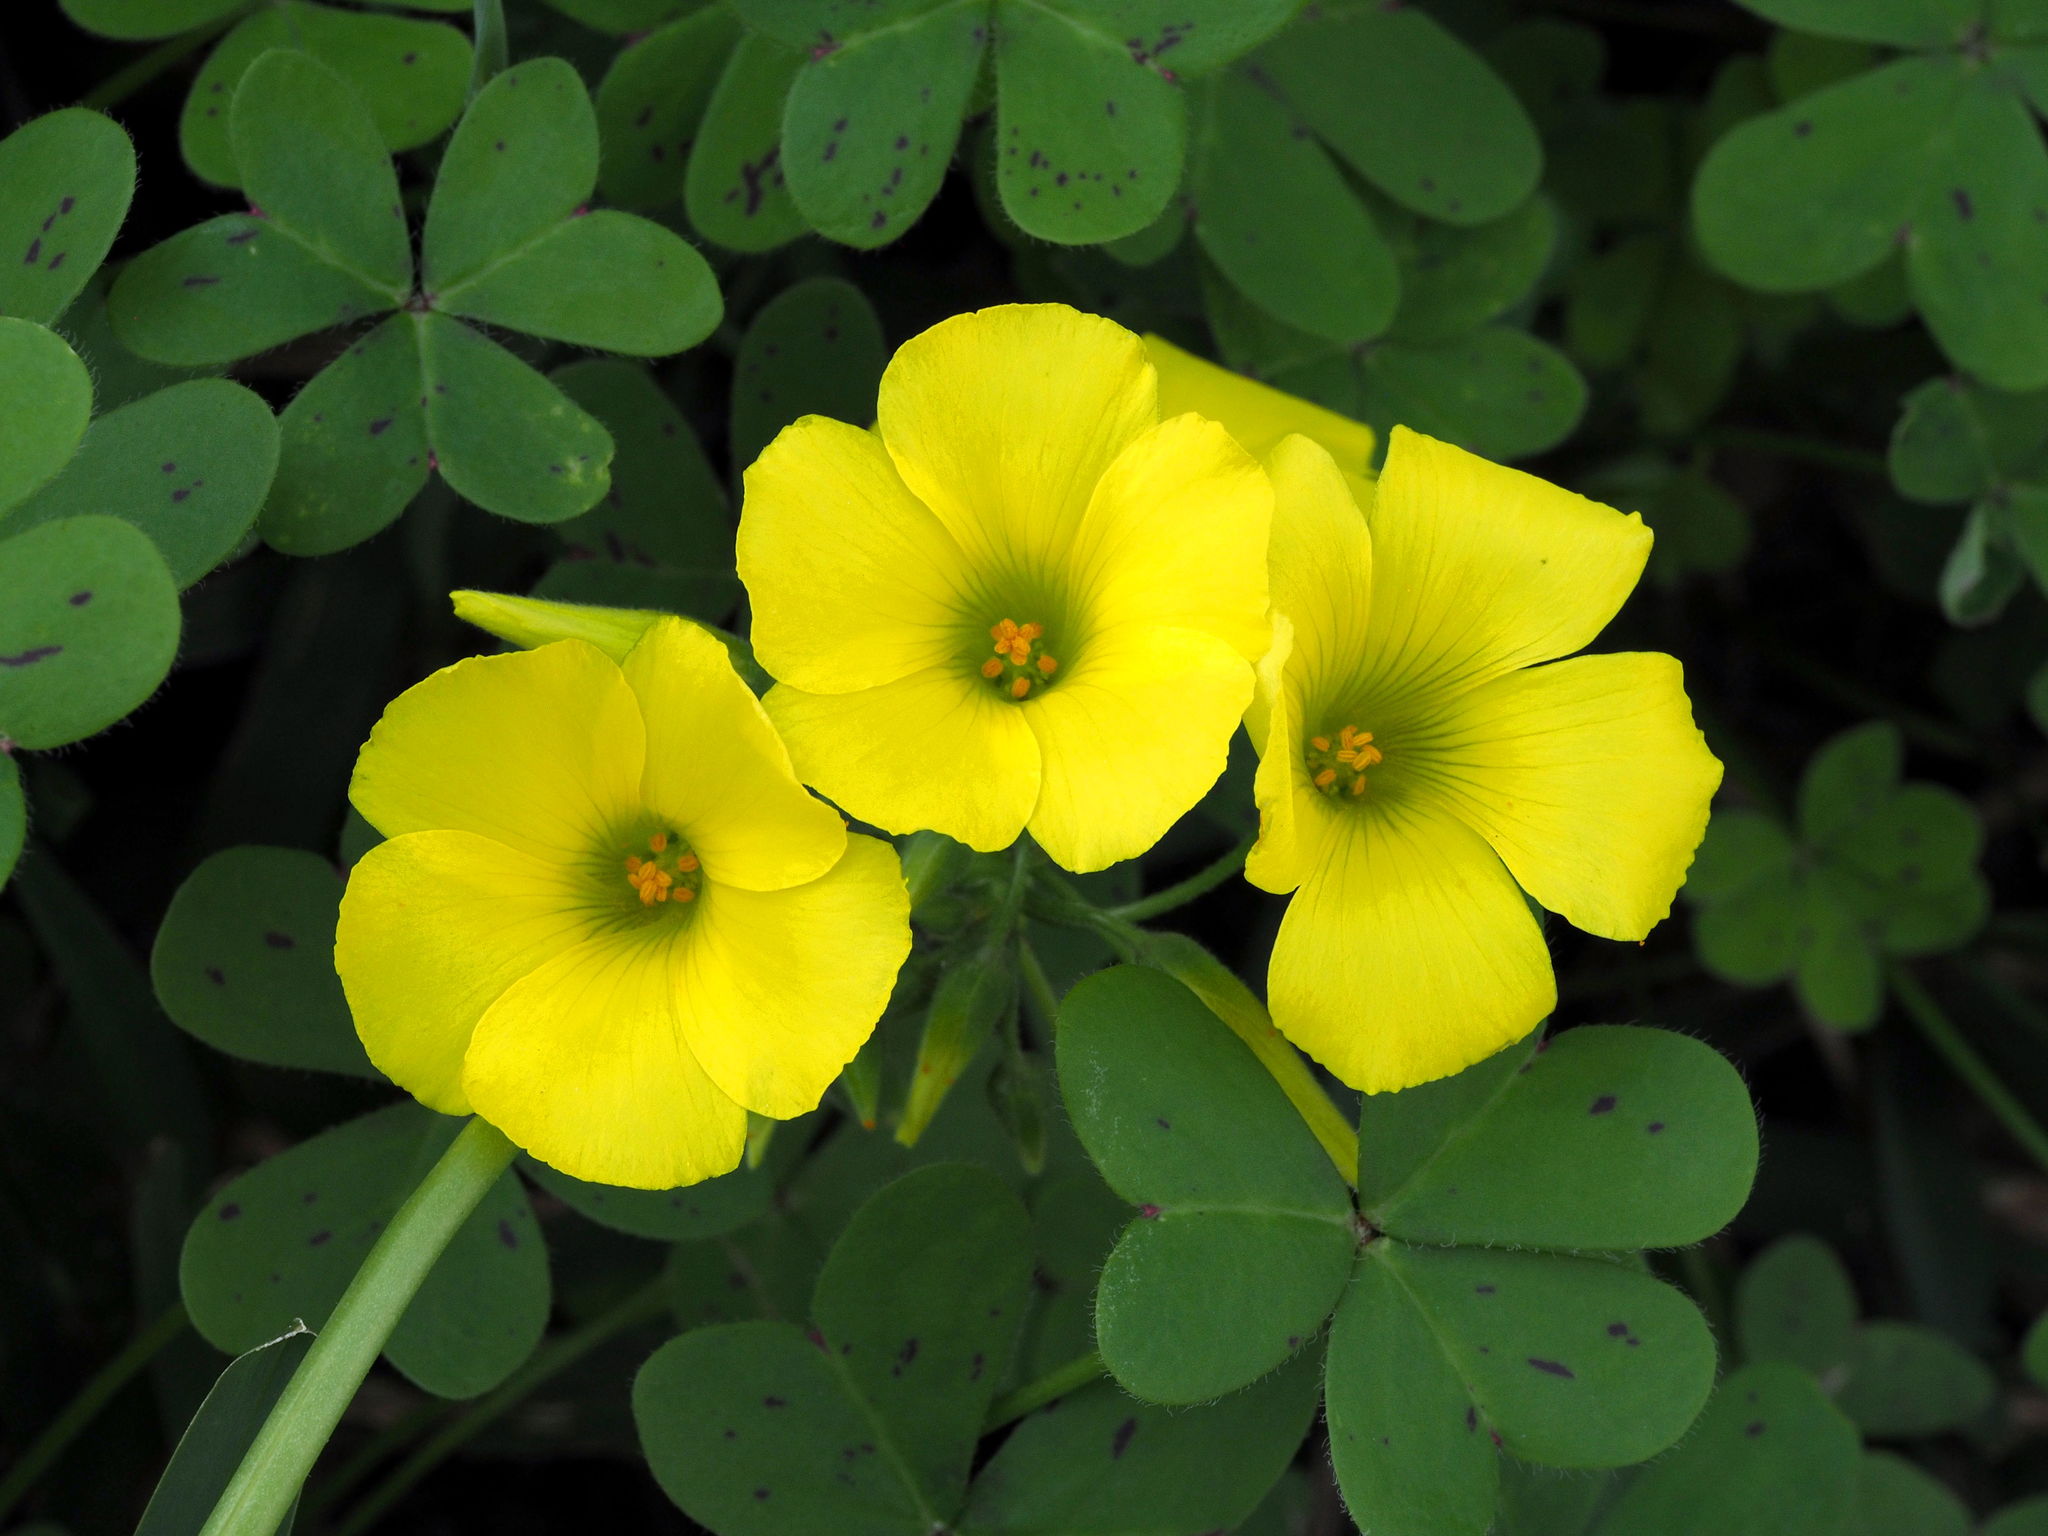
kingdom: Plantae
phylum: Tracheophyta
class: Magnoliopsida
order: Oxalidales
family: Oxalidaceae
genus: Oxalis
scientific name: Oxalis pes-caprae
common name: Bermuda-buttercup
